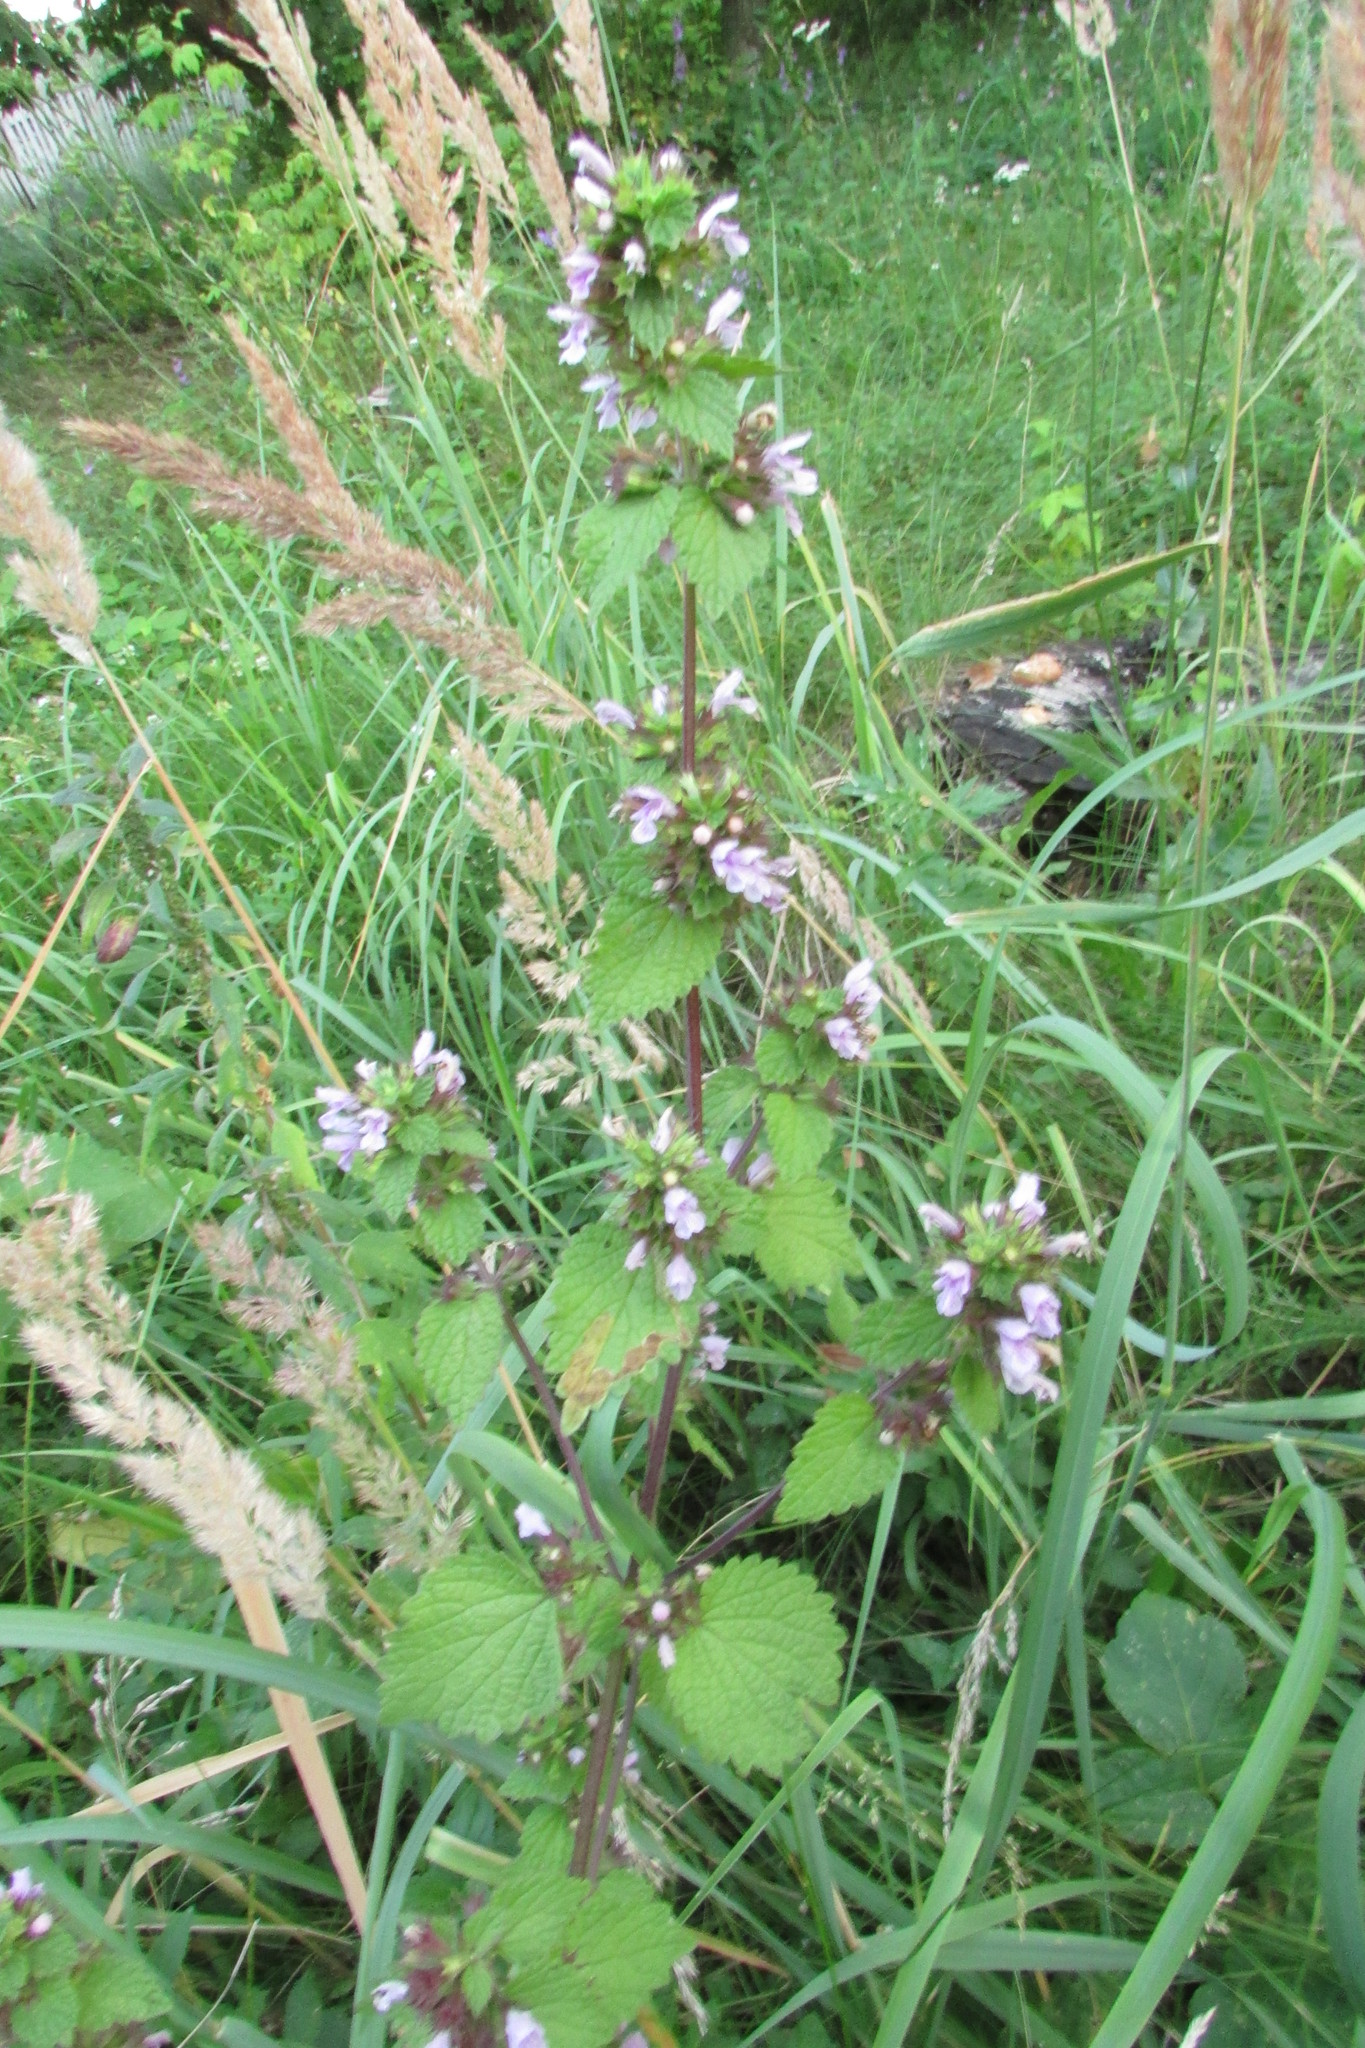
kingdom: Plantae
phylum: Tracheophyta
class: Magnoliopsida
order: Lamiales
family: Lamiaceae
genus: Ballota
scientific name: Ballota nigra
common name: Black horehound
